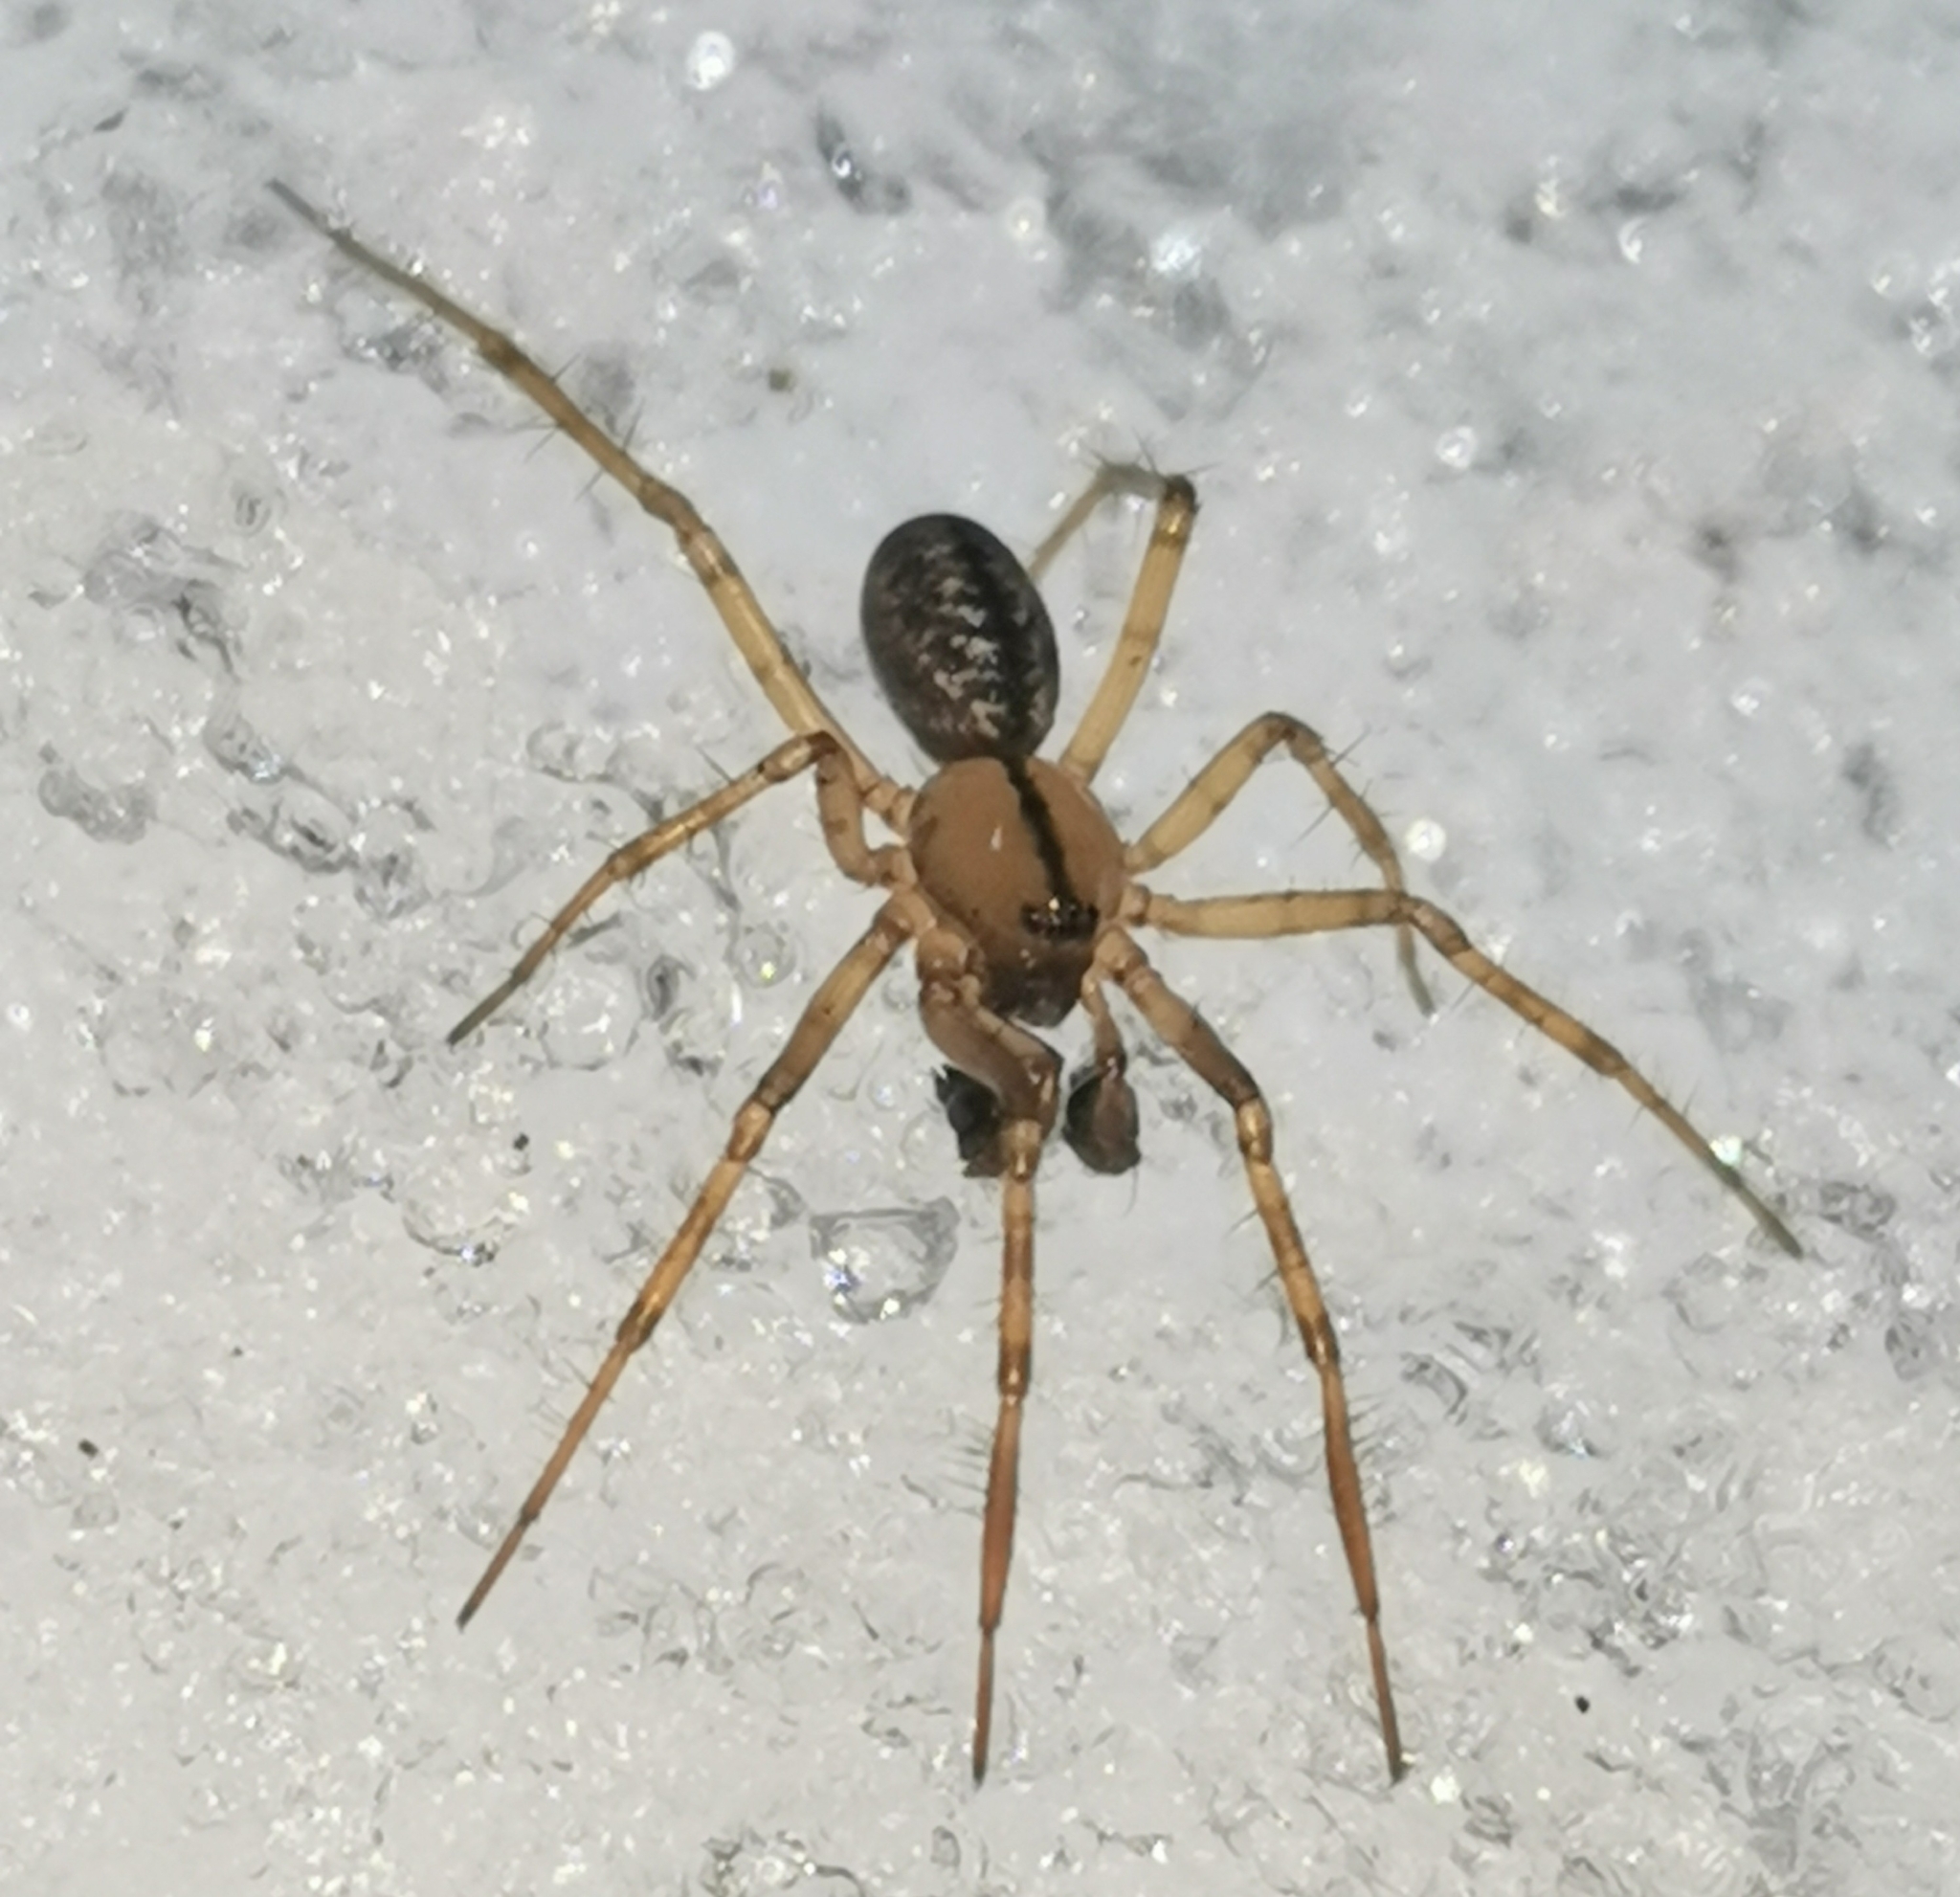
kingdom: Animalia
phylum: Arthropoda
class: Arachnida
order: Araneae
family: Linyphiidae
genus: Stemonyphantes
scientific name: Stemonyphantes lineatus
